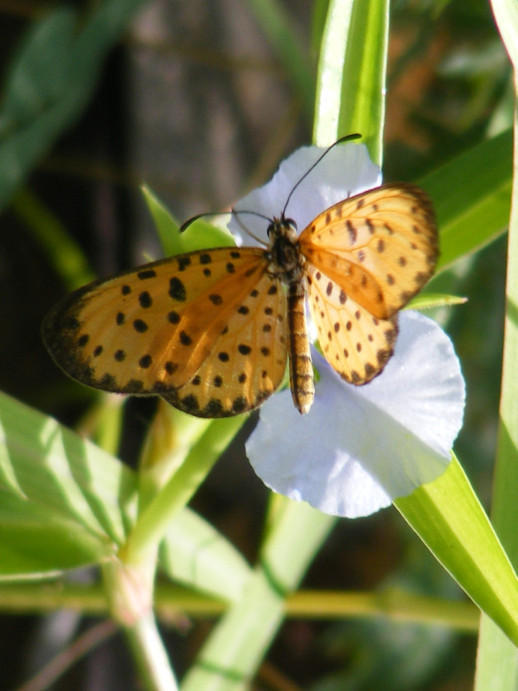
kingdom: Animalia
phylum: Arthropoda
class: Insecta
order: Lepidoptera
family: Nymphalidae
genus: Pardopsis
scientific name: Pardopsis punctatissima
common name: Polka dot
